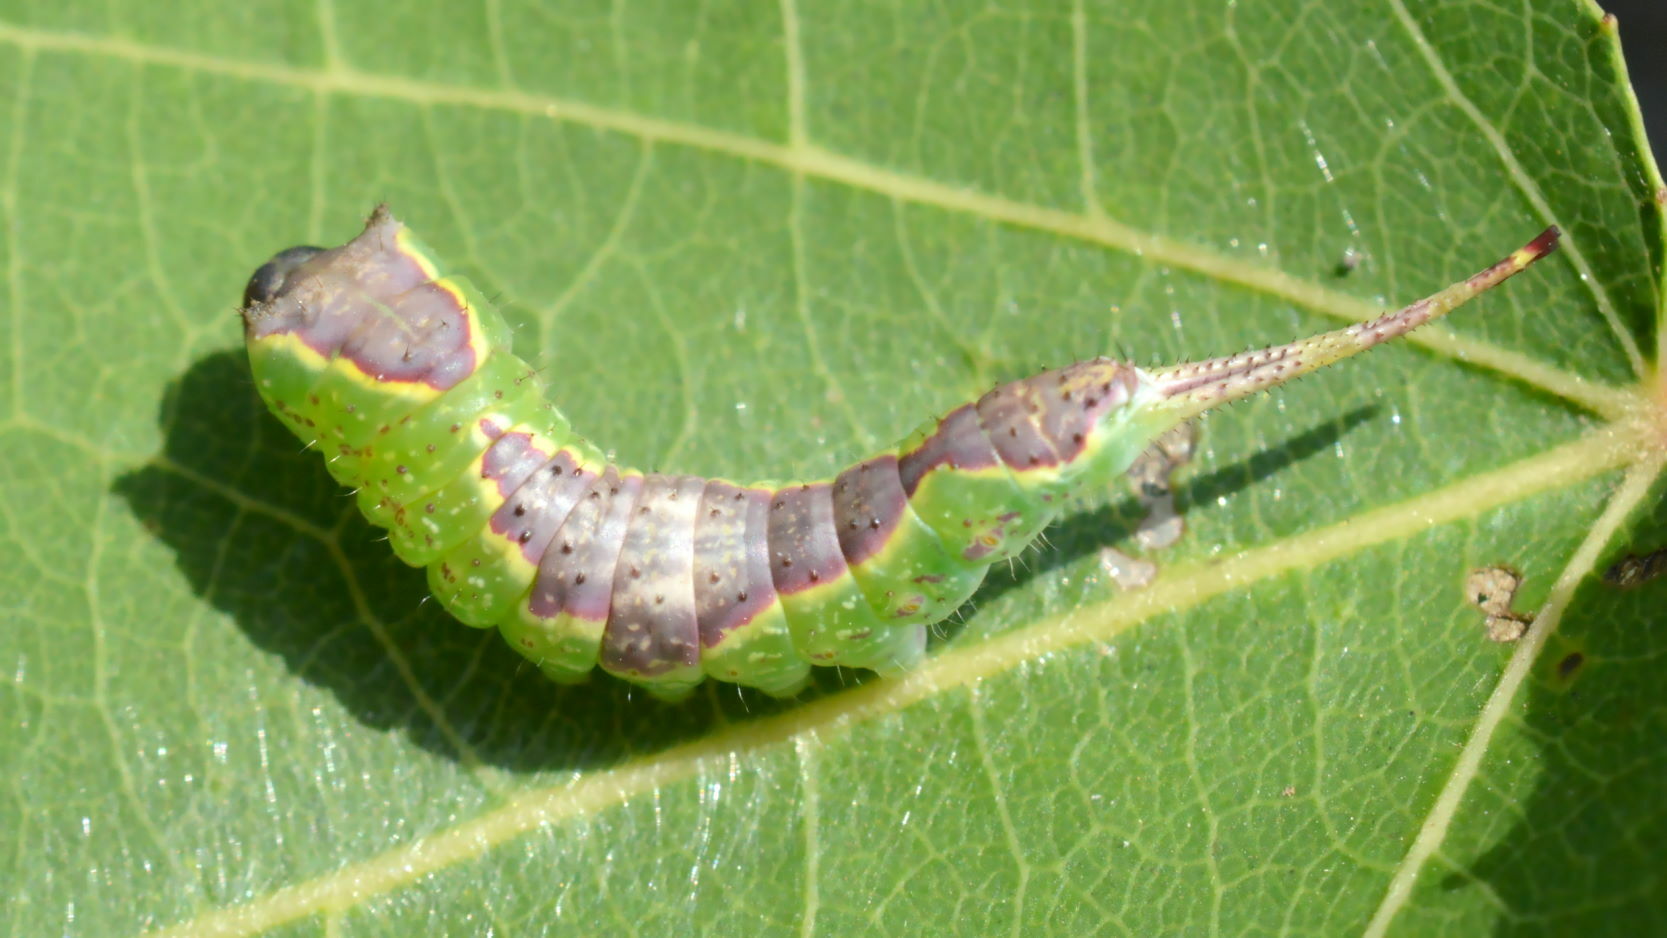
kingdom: Animalia
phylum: Arthropoda
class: Insecta
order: Lepidoptera
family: Notodontidae
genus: Furcula
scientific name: Furcula bifida
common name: Poplar kitten
